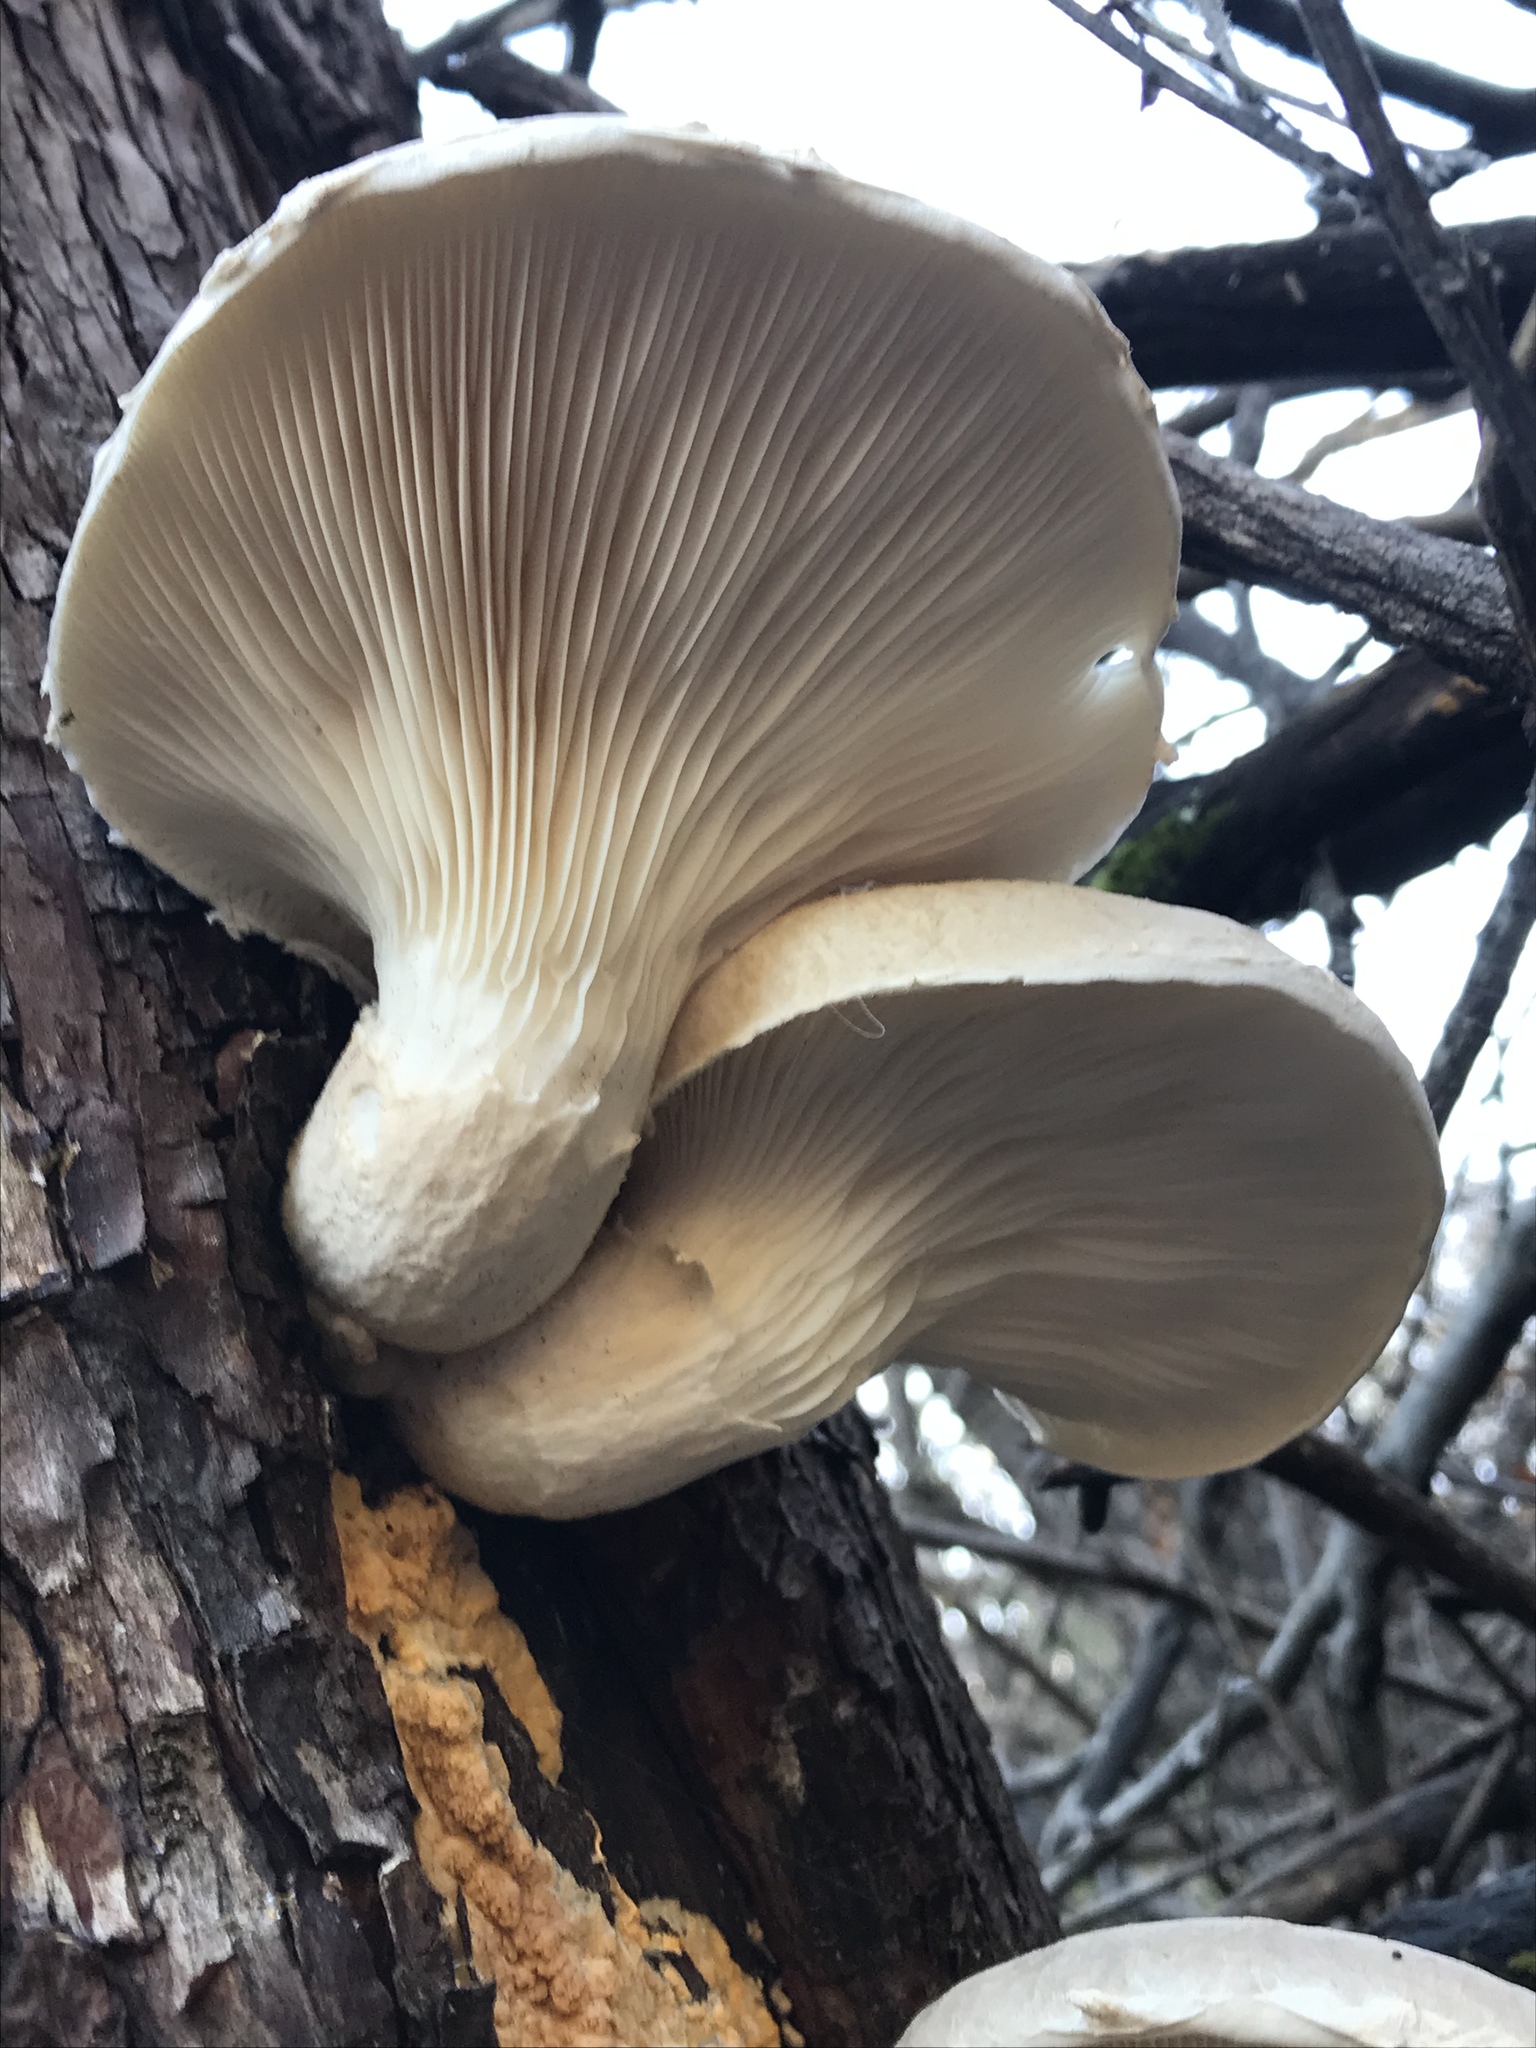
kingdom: Fungi
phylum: Basidiomycota
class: Agaricomycetes
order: Agaricales
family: Pleurotaceae
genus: Pleurotus
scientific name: Pleurotus dryinus
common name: Veiled oyster
